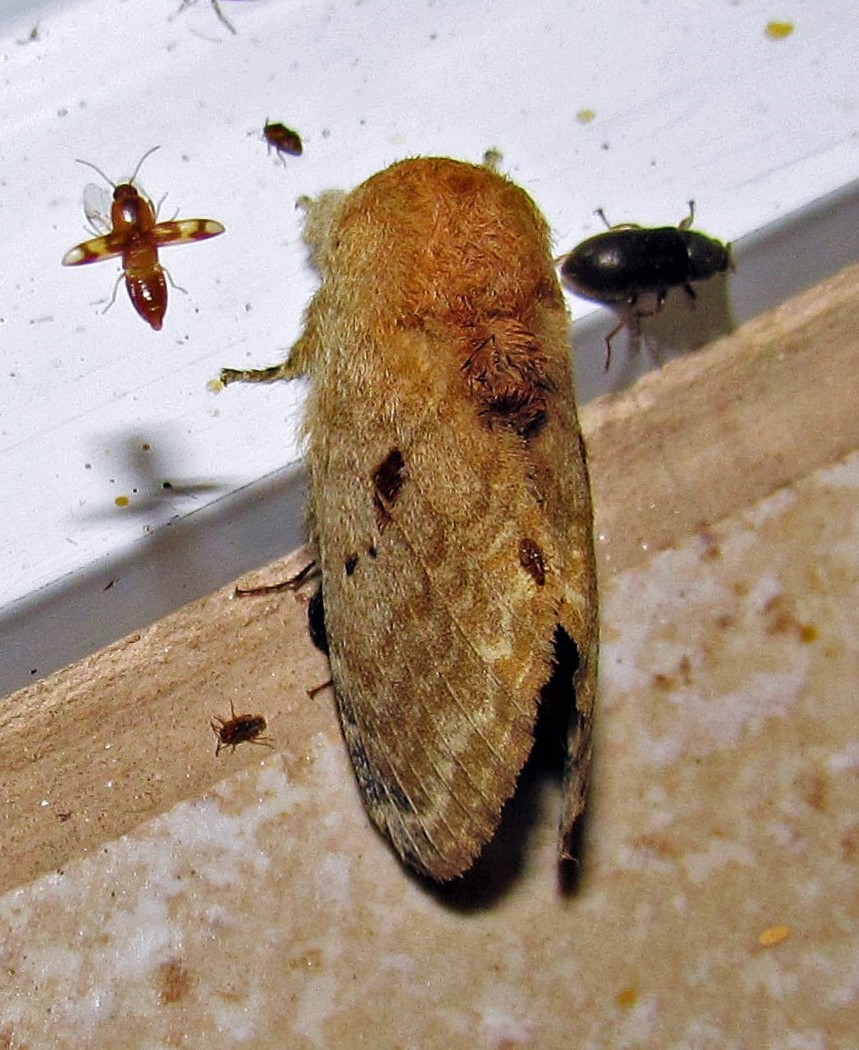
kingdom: Animalia
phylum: Arthropoda
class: Insecta
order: Lepidoptera
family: Lasiocampidae
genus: Tolype
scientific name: Tolype viuda
